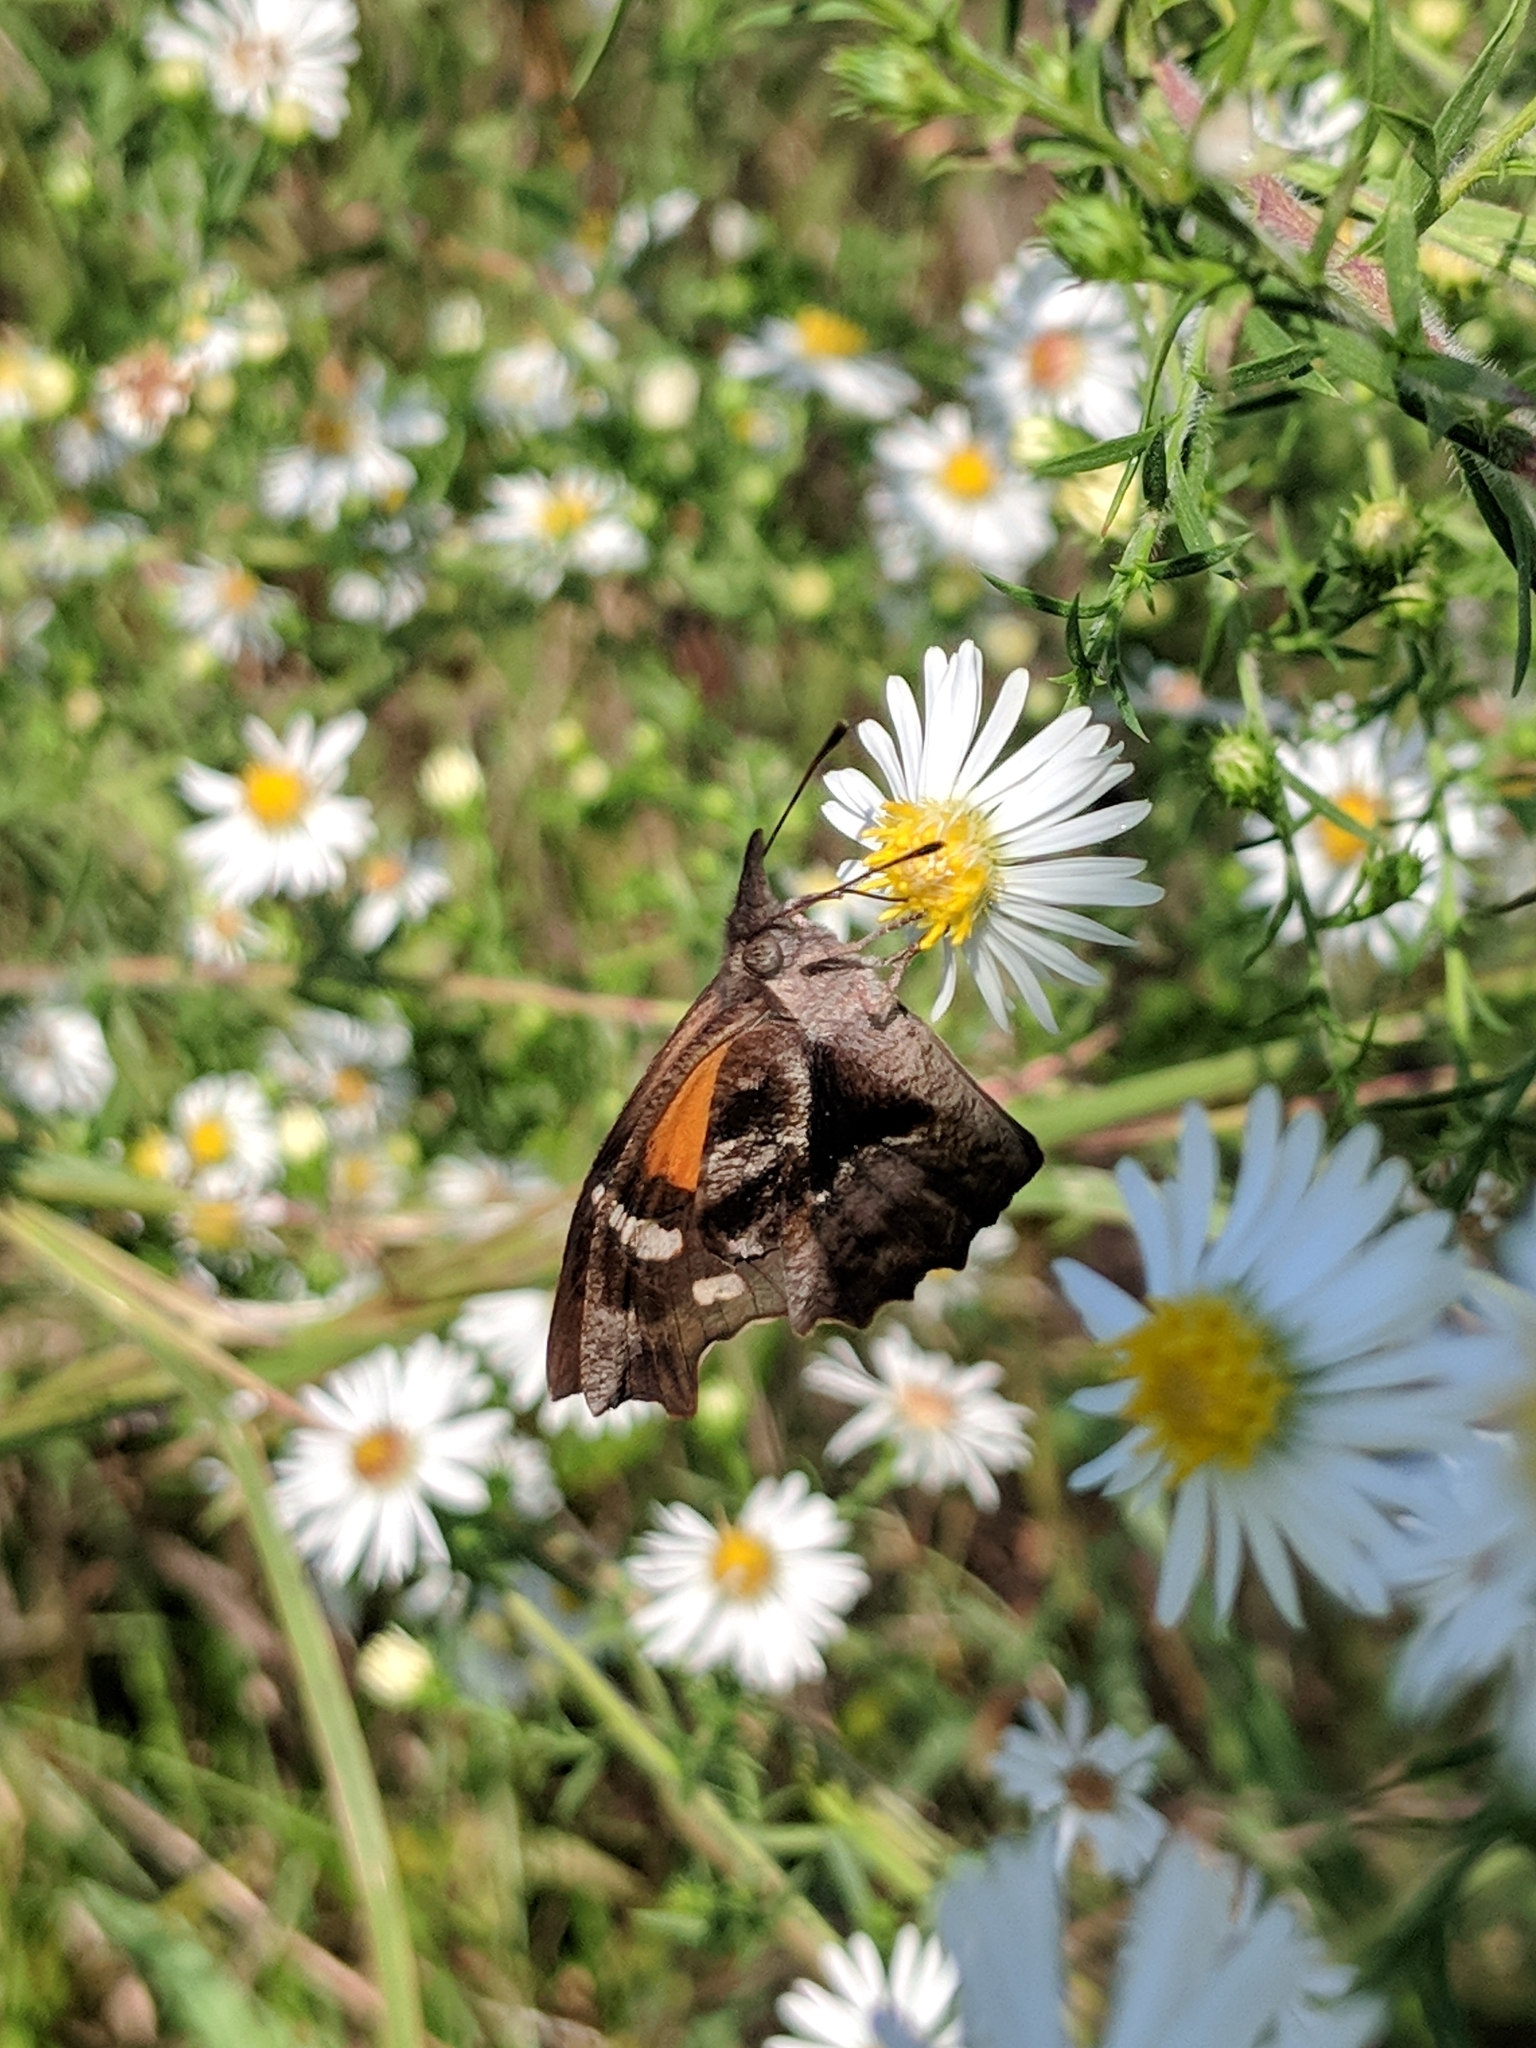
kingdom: Animalia
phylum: Arthropoda
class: Insecta
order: Lepidoptera
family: Nymphalidae
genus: Libytheana
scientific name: Libytheana carinenta
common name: American snout
